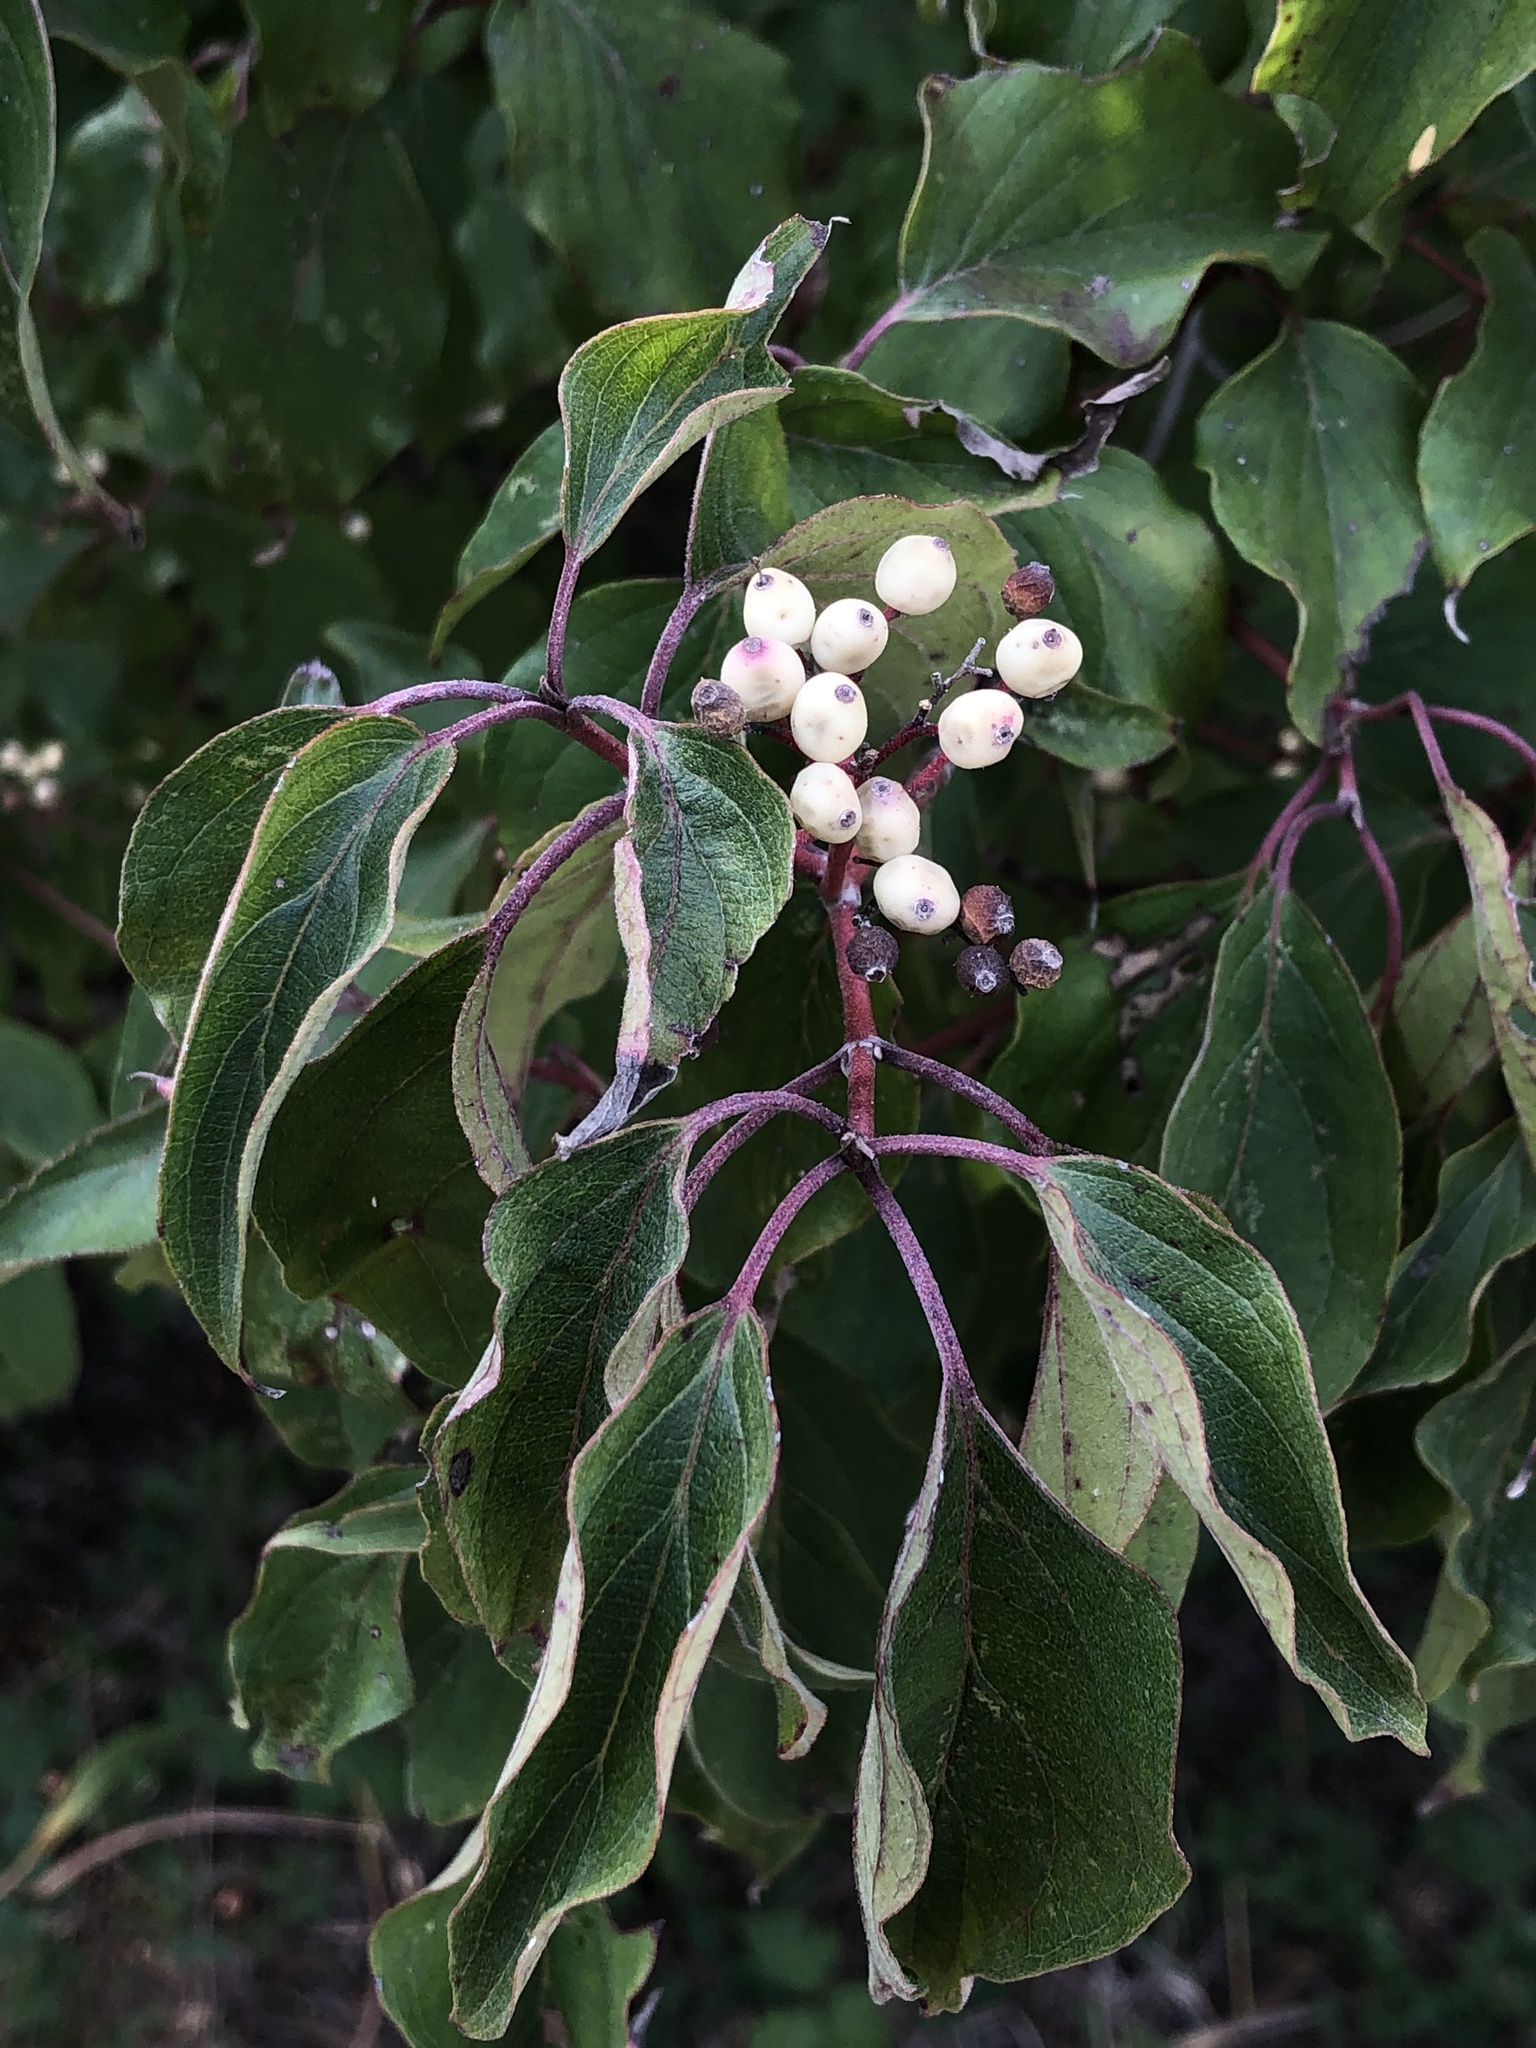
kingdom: Plantae
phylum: Tracheophyta
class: Magnoliopsida
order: Cornales
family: Cornaceae
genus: Cornus
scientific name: Cornus drummondii
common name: Rough-leaf dogwood
